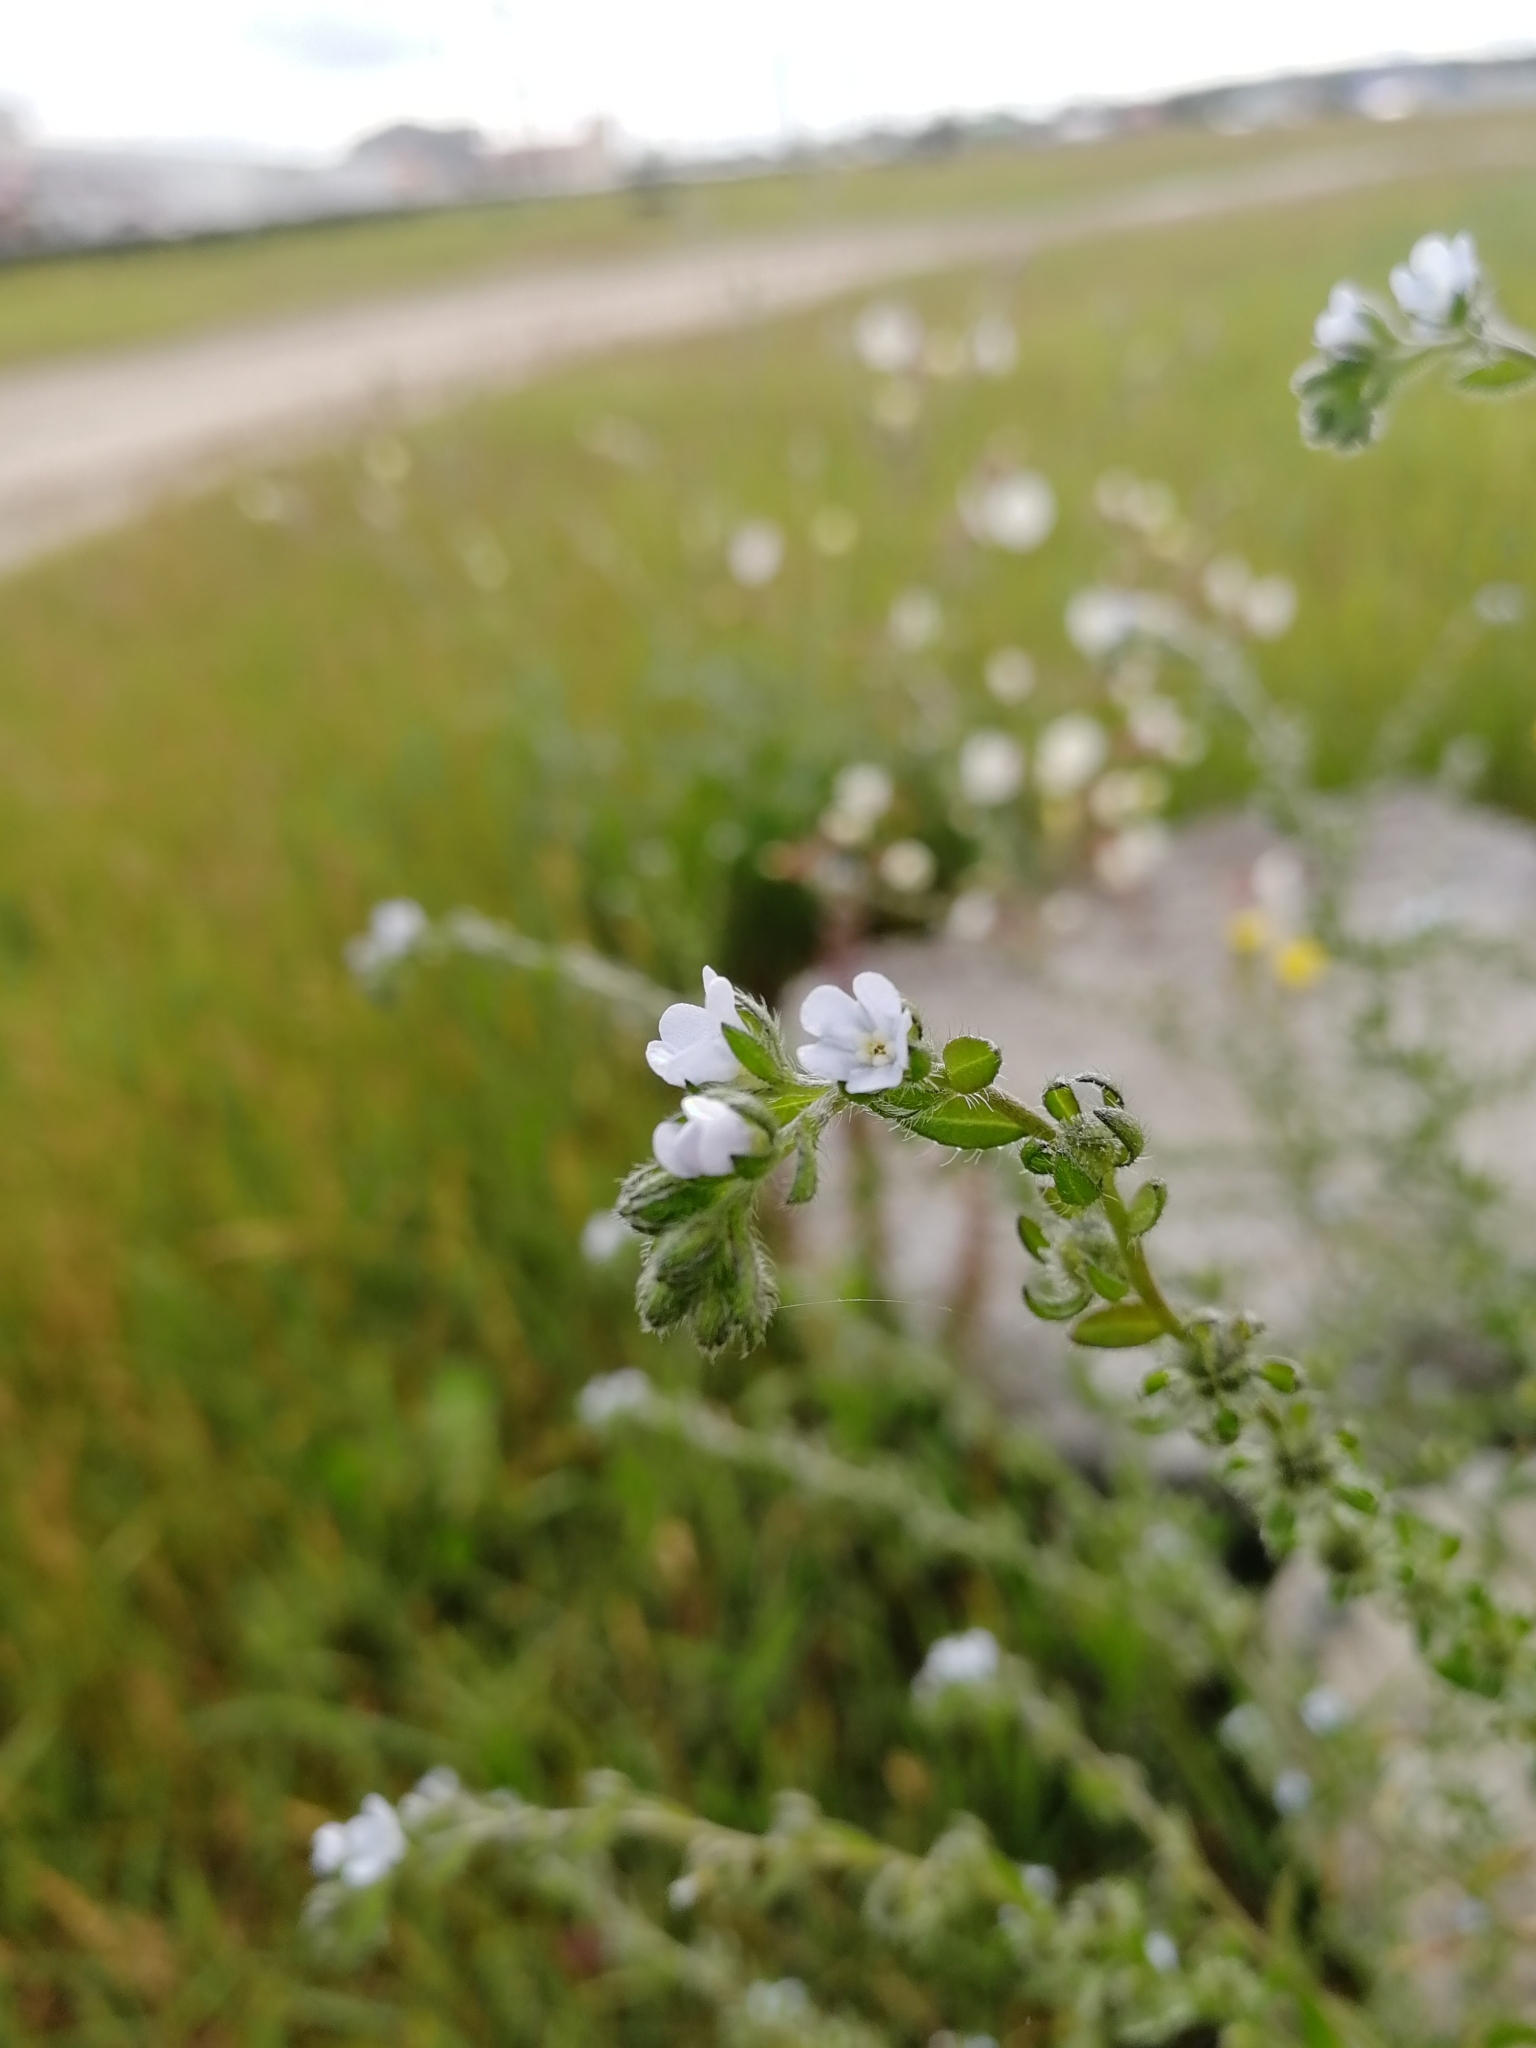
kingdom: Plantae
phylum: Tracheophyta
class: Magnoliopsida
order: Boraginales
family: Boraginaceae
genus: Lappula
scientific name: Lappula squarrosa
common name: European stickseed
